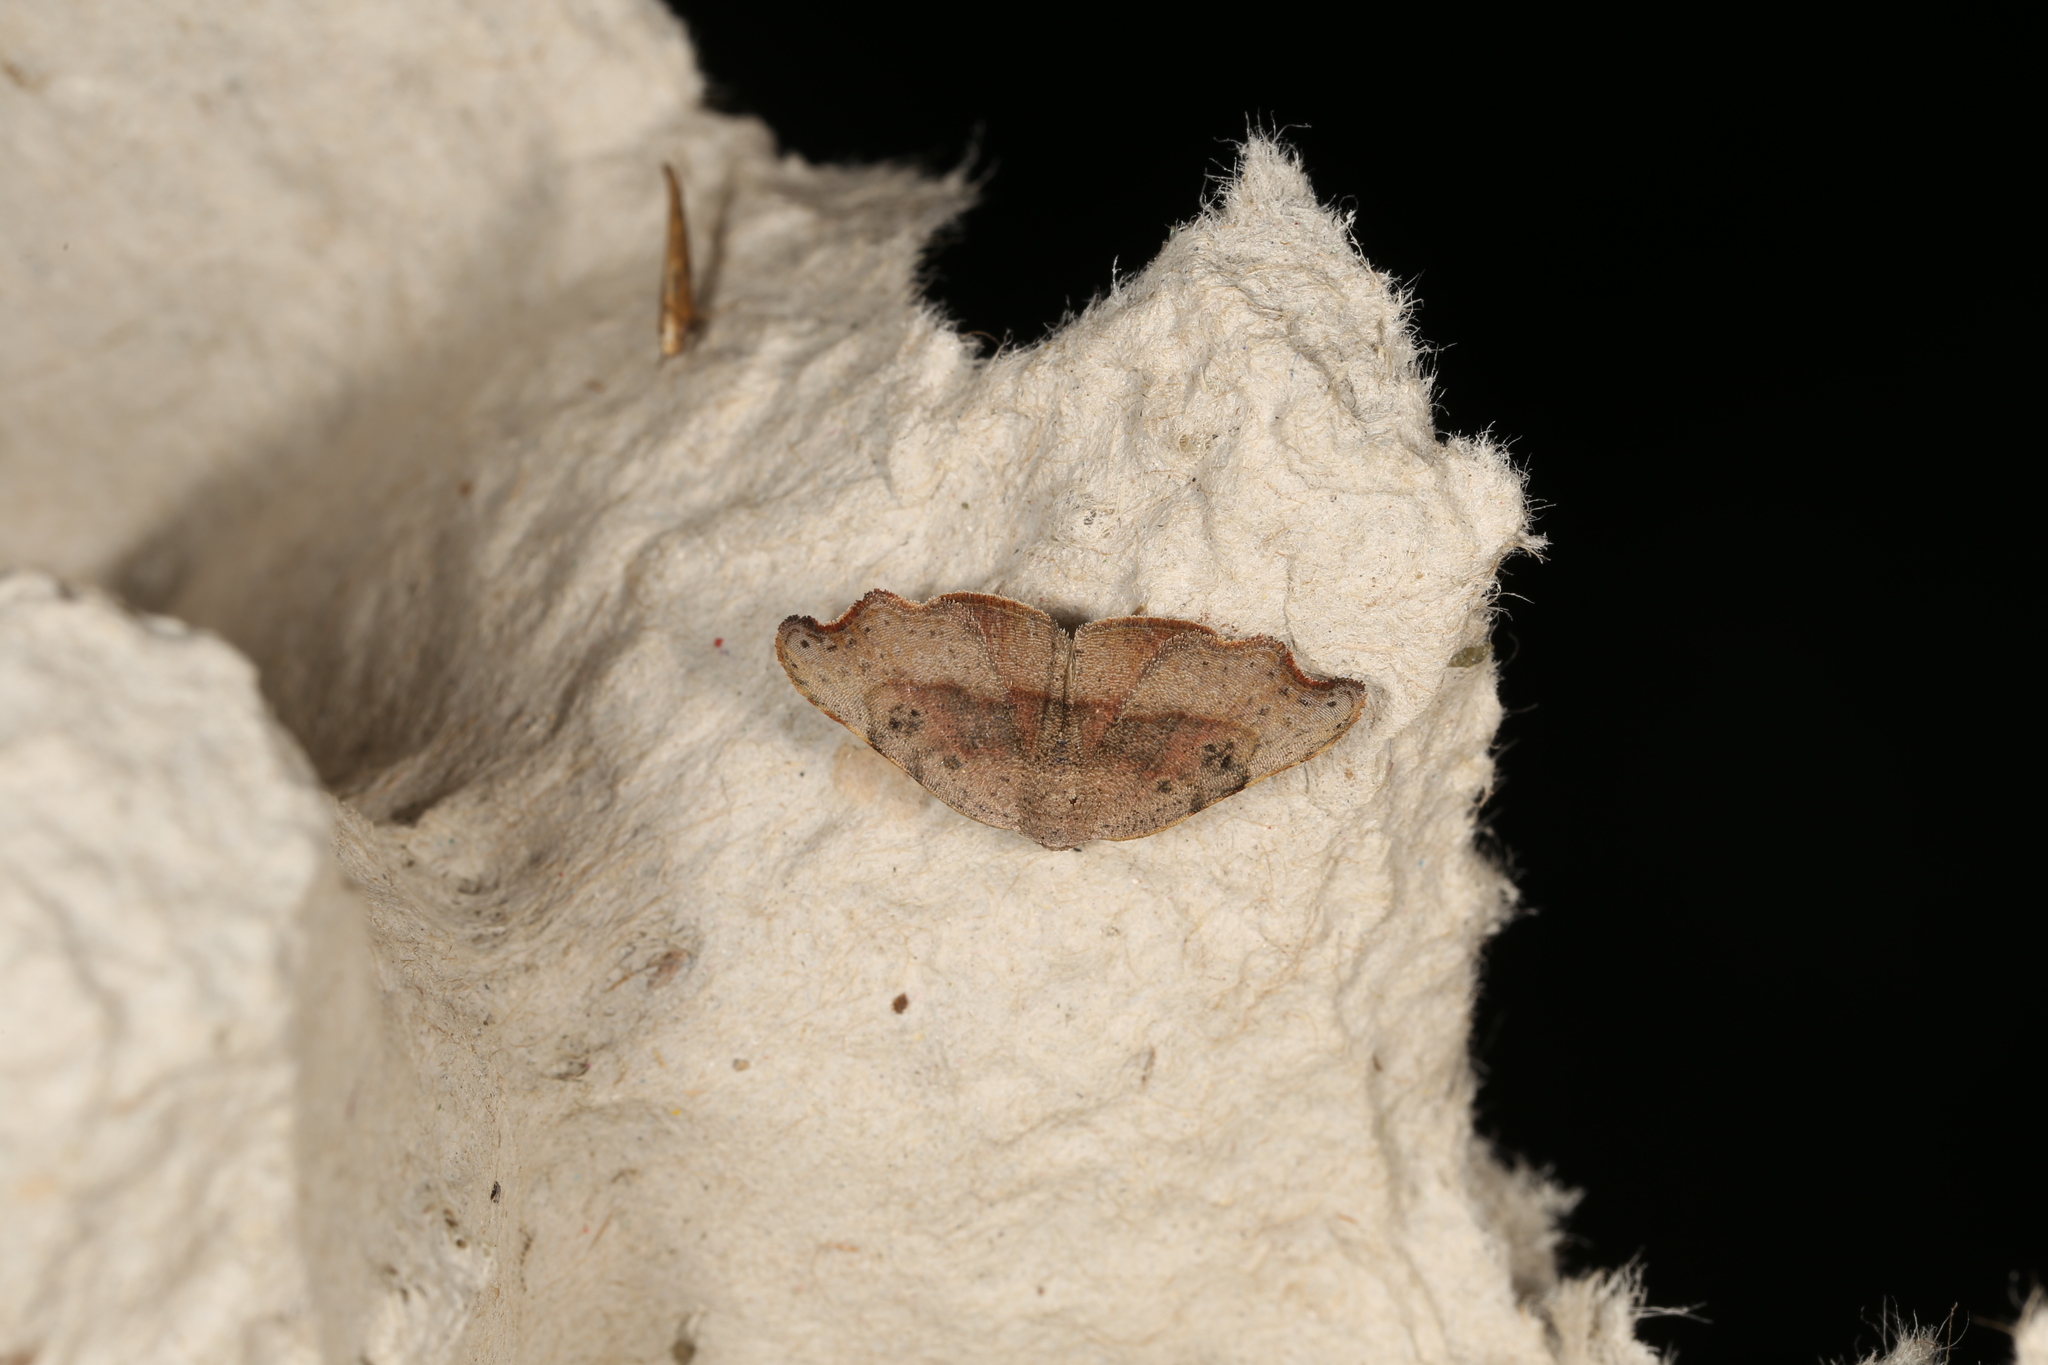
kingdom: Animalia
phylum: Arthropoda
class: Insecta
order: Lepidoptera
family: Erebidae
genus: Laspeyria
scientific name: Laspeyria concavata
